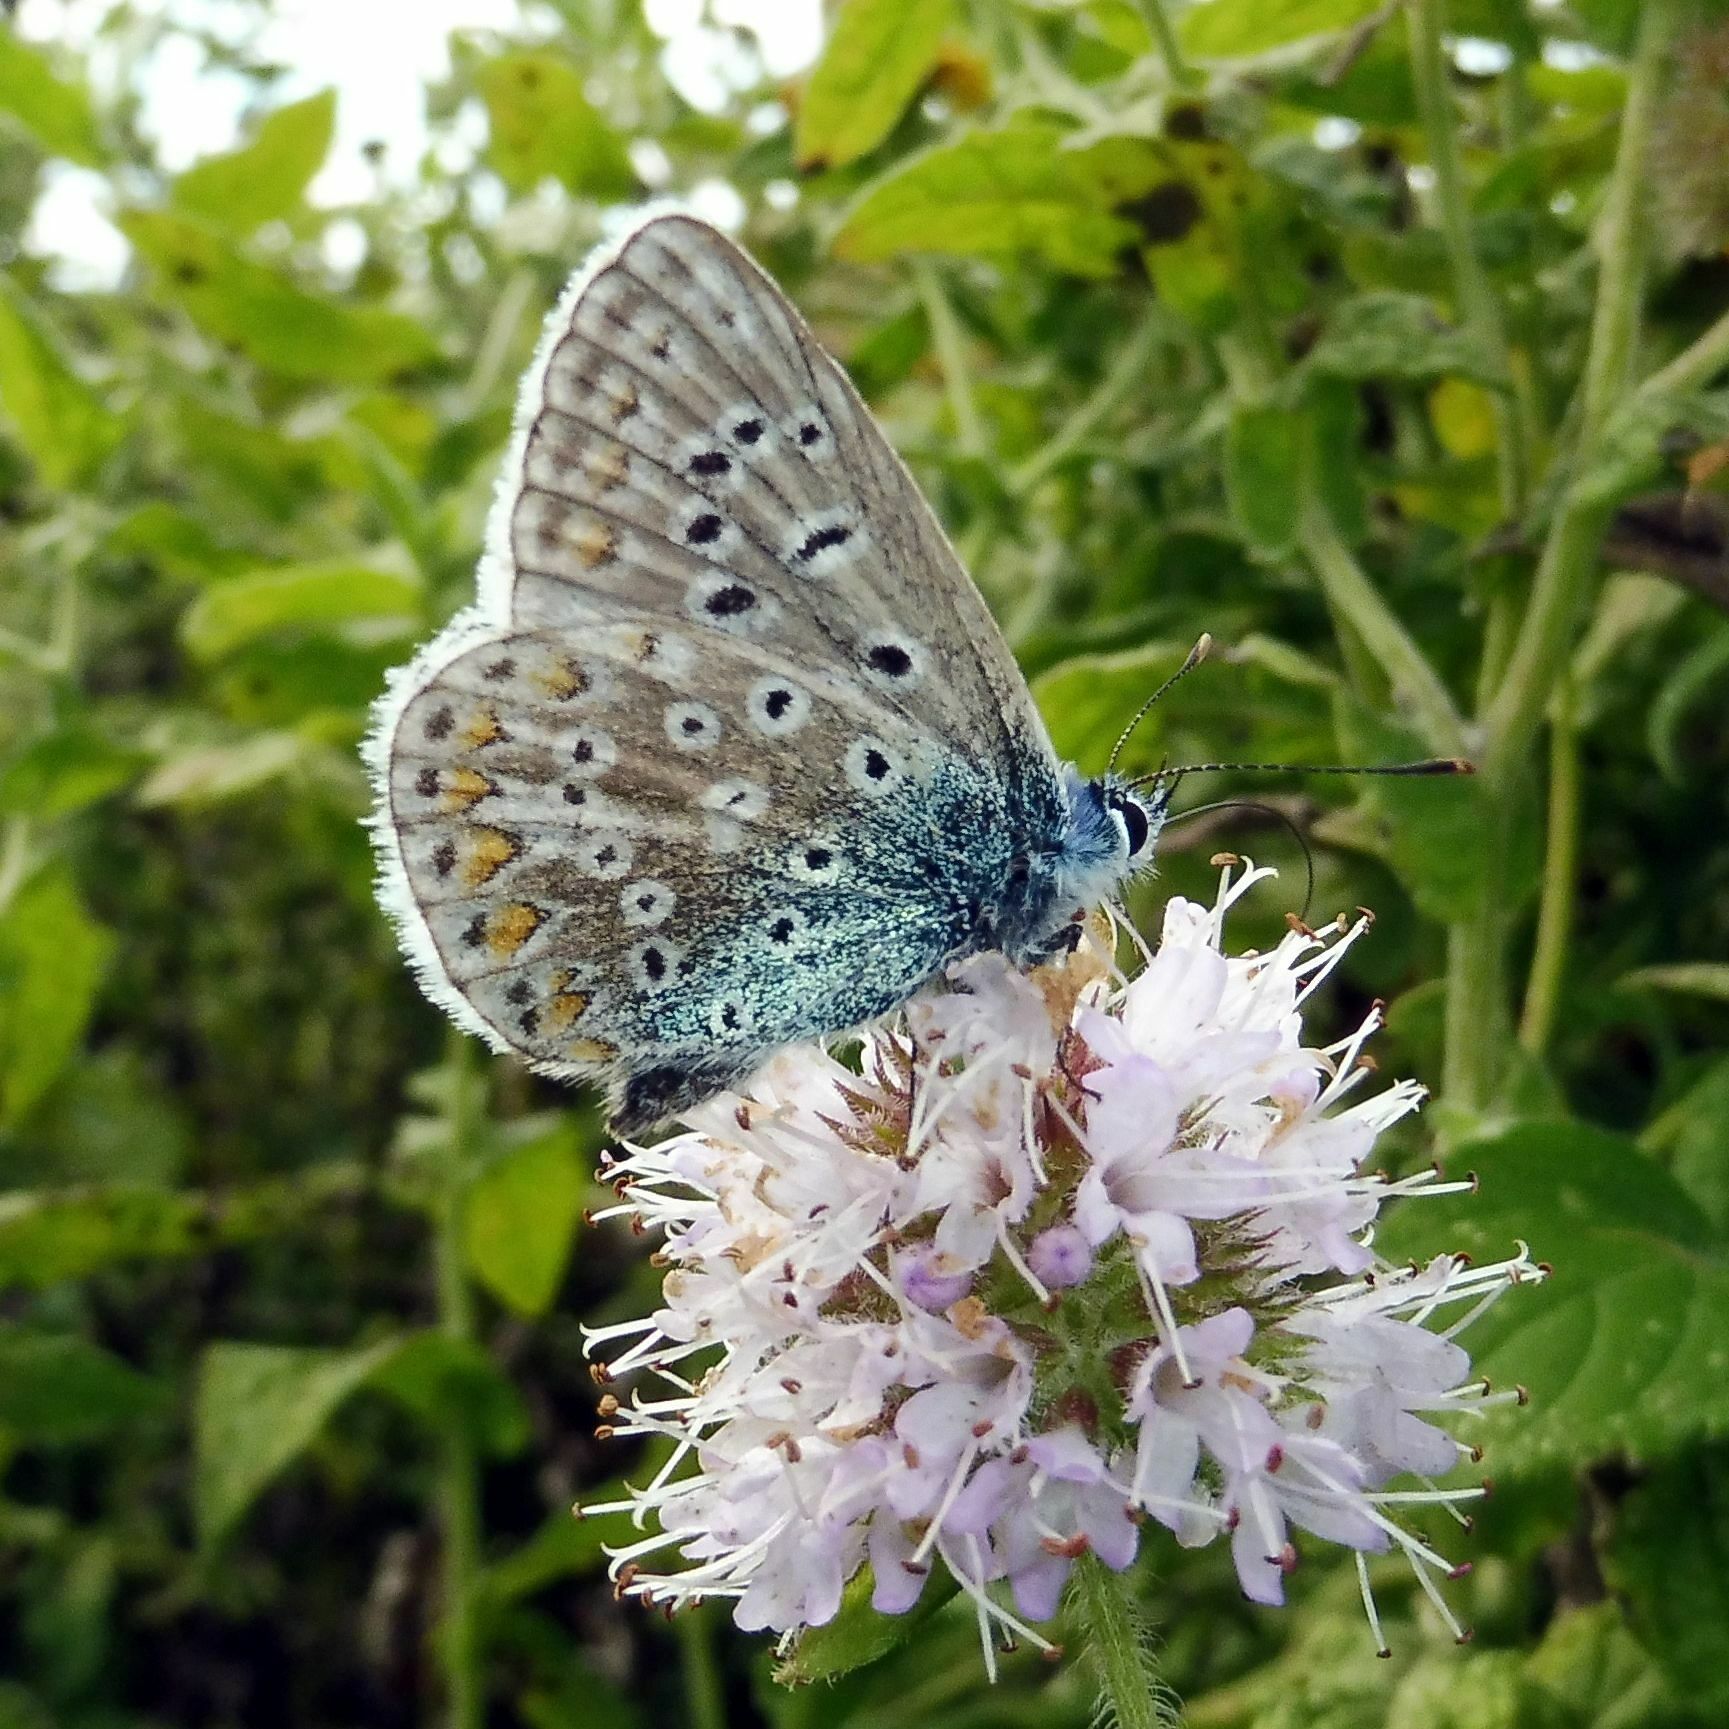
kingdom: Animalia
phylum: Arthropoda
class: Insecta
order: Lepidoptera
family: Lycaenidae
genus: Polyommatus
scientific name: Polyommatus icarus
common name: Common blue
